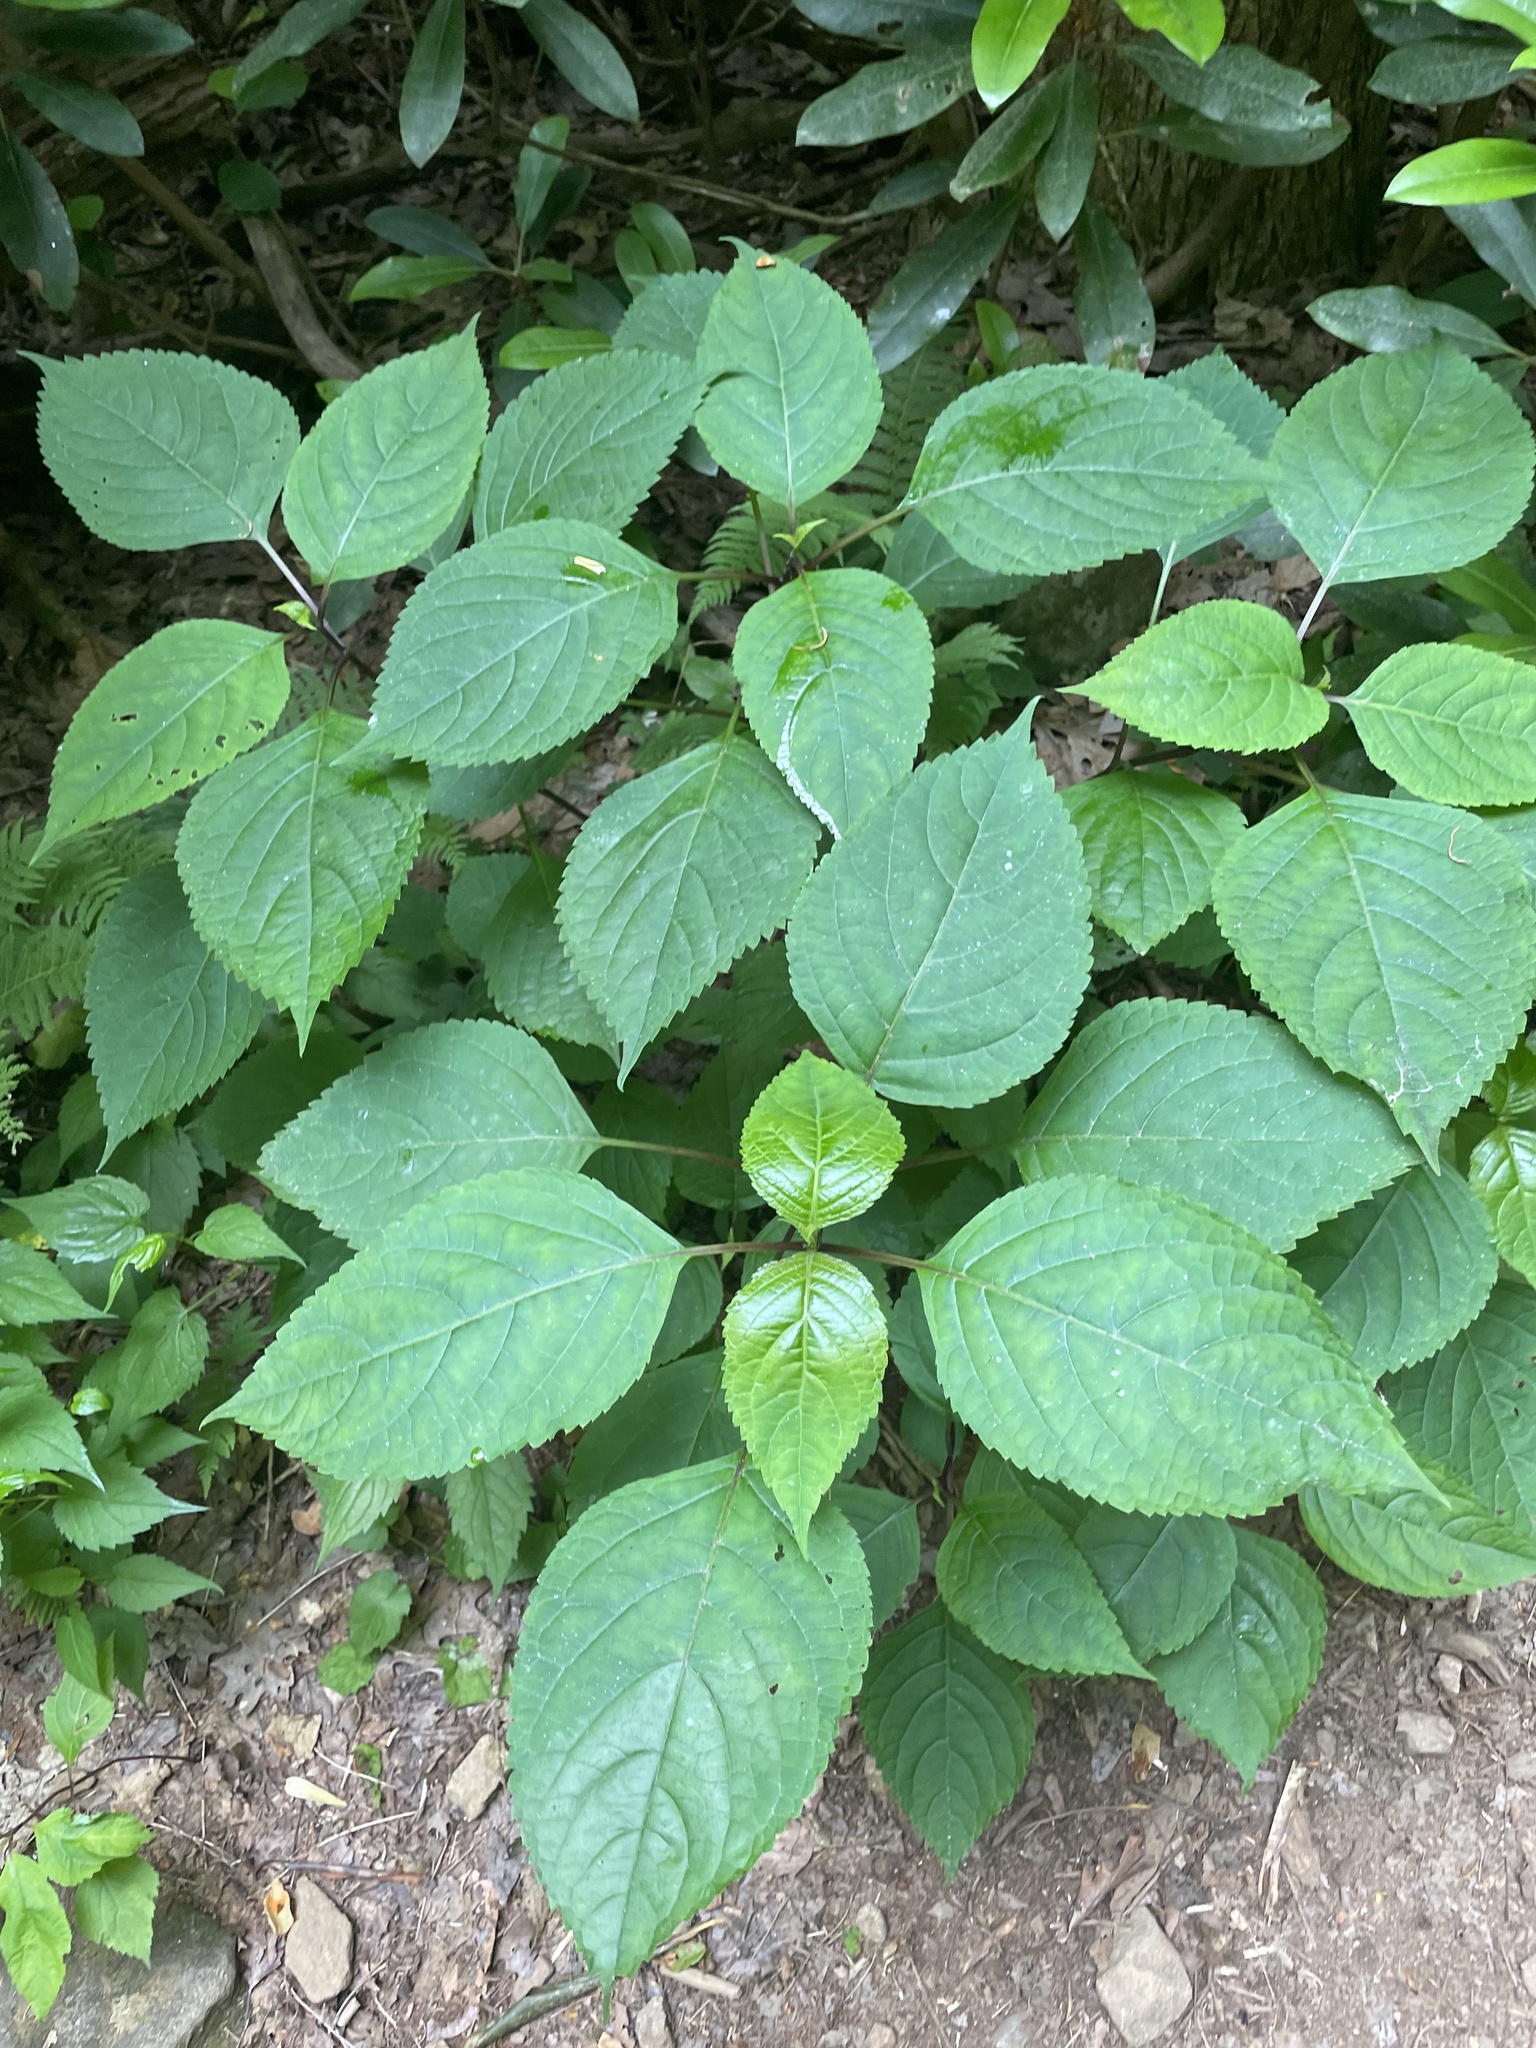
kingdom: Plantae
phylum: Tracheophyta
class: Magnoliopsida
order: Lamiales
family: Lamiaceae
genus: Collinsonia
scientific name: Collinsonia canadensis
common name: Northern horsebalm
